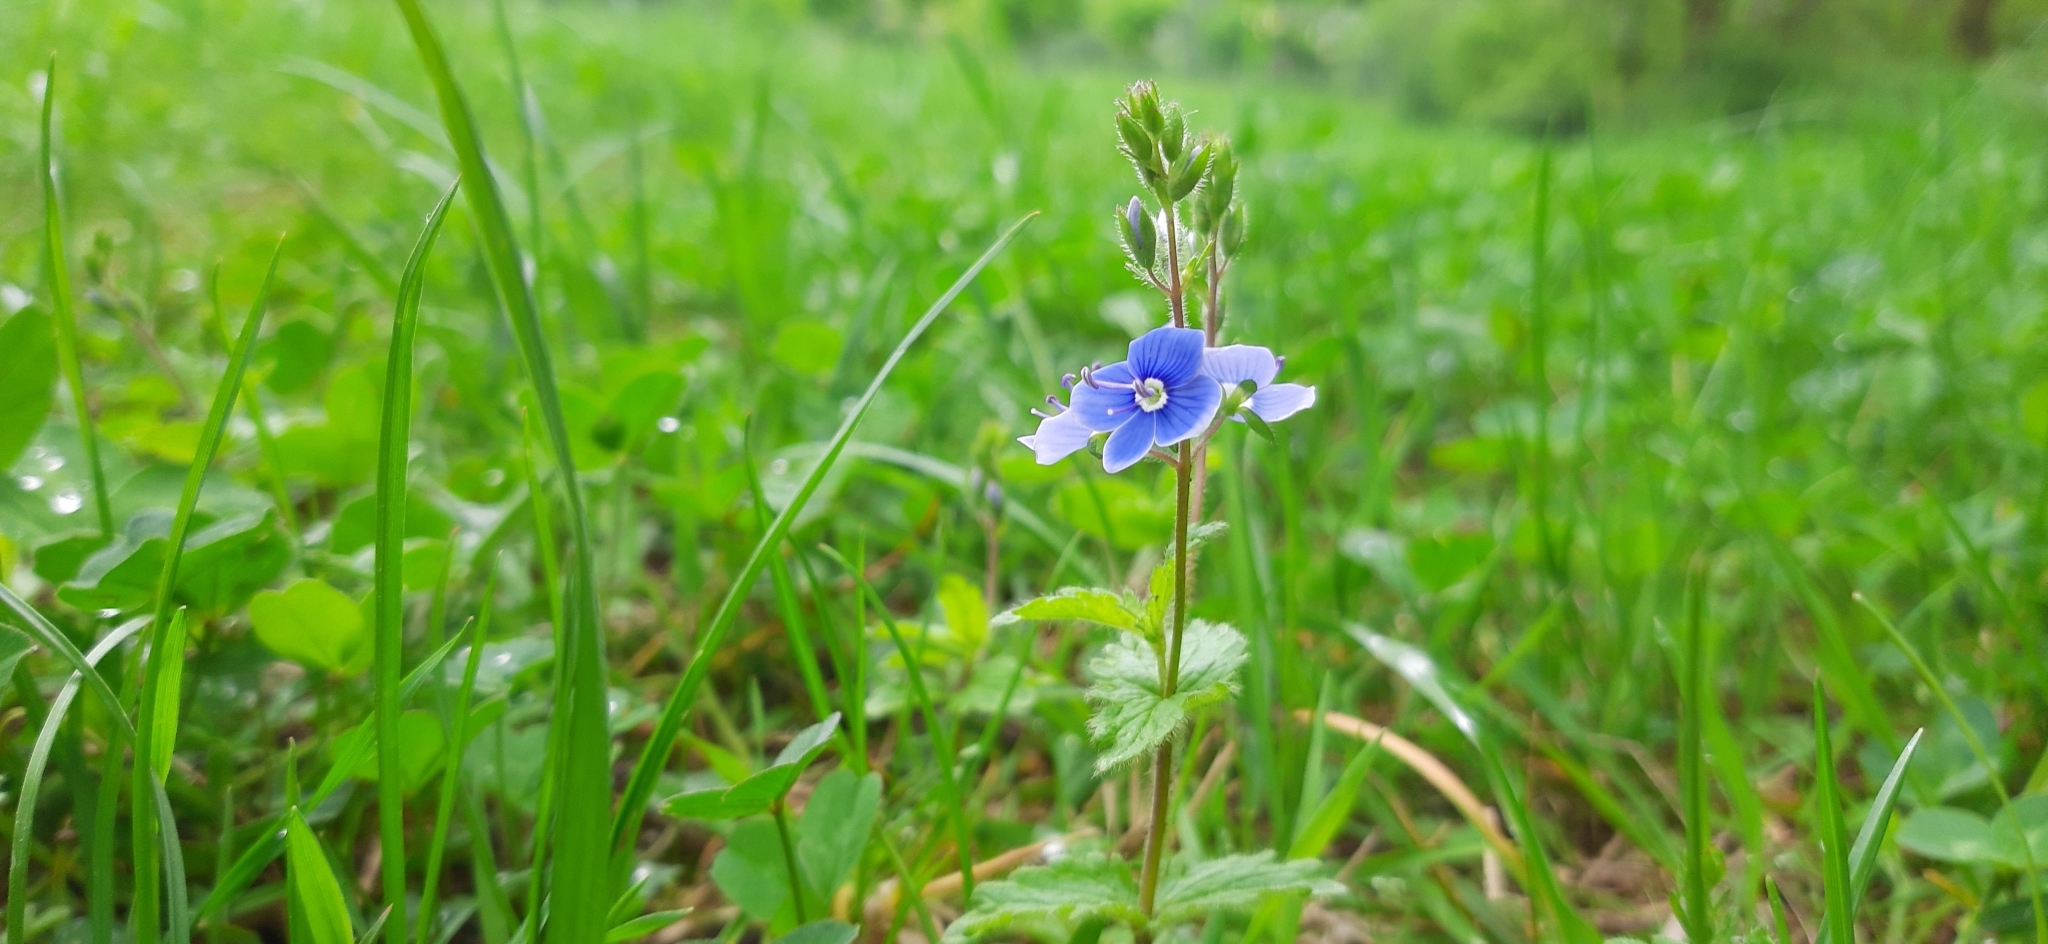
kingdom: Plantae
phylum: Tracheophyta
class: Magnoliopsida
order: Lamiales
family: Plantaginaceae
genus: Veronica
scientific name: Veronica chamaedrys
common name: Germander speedwell
